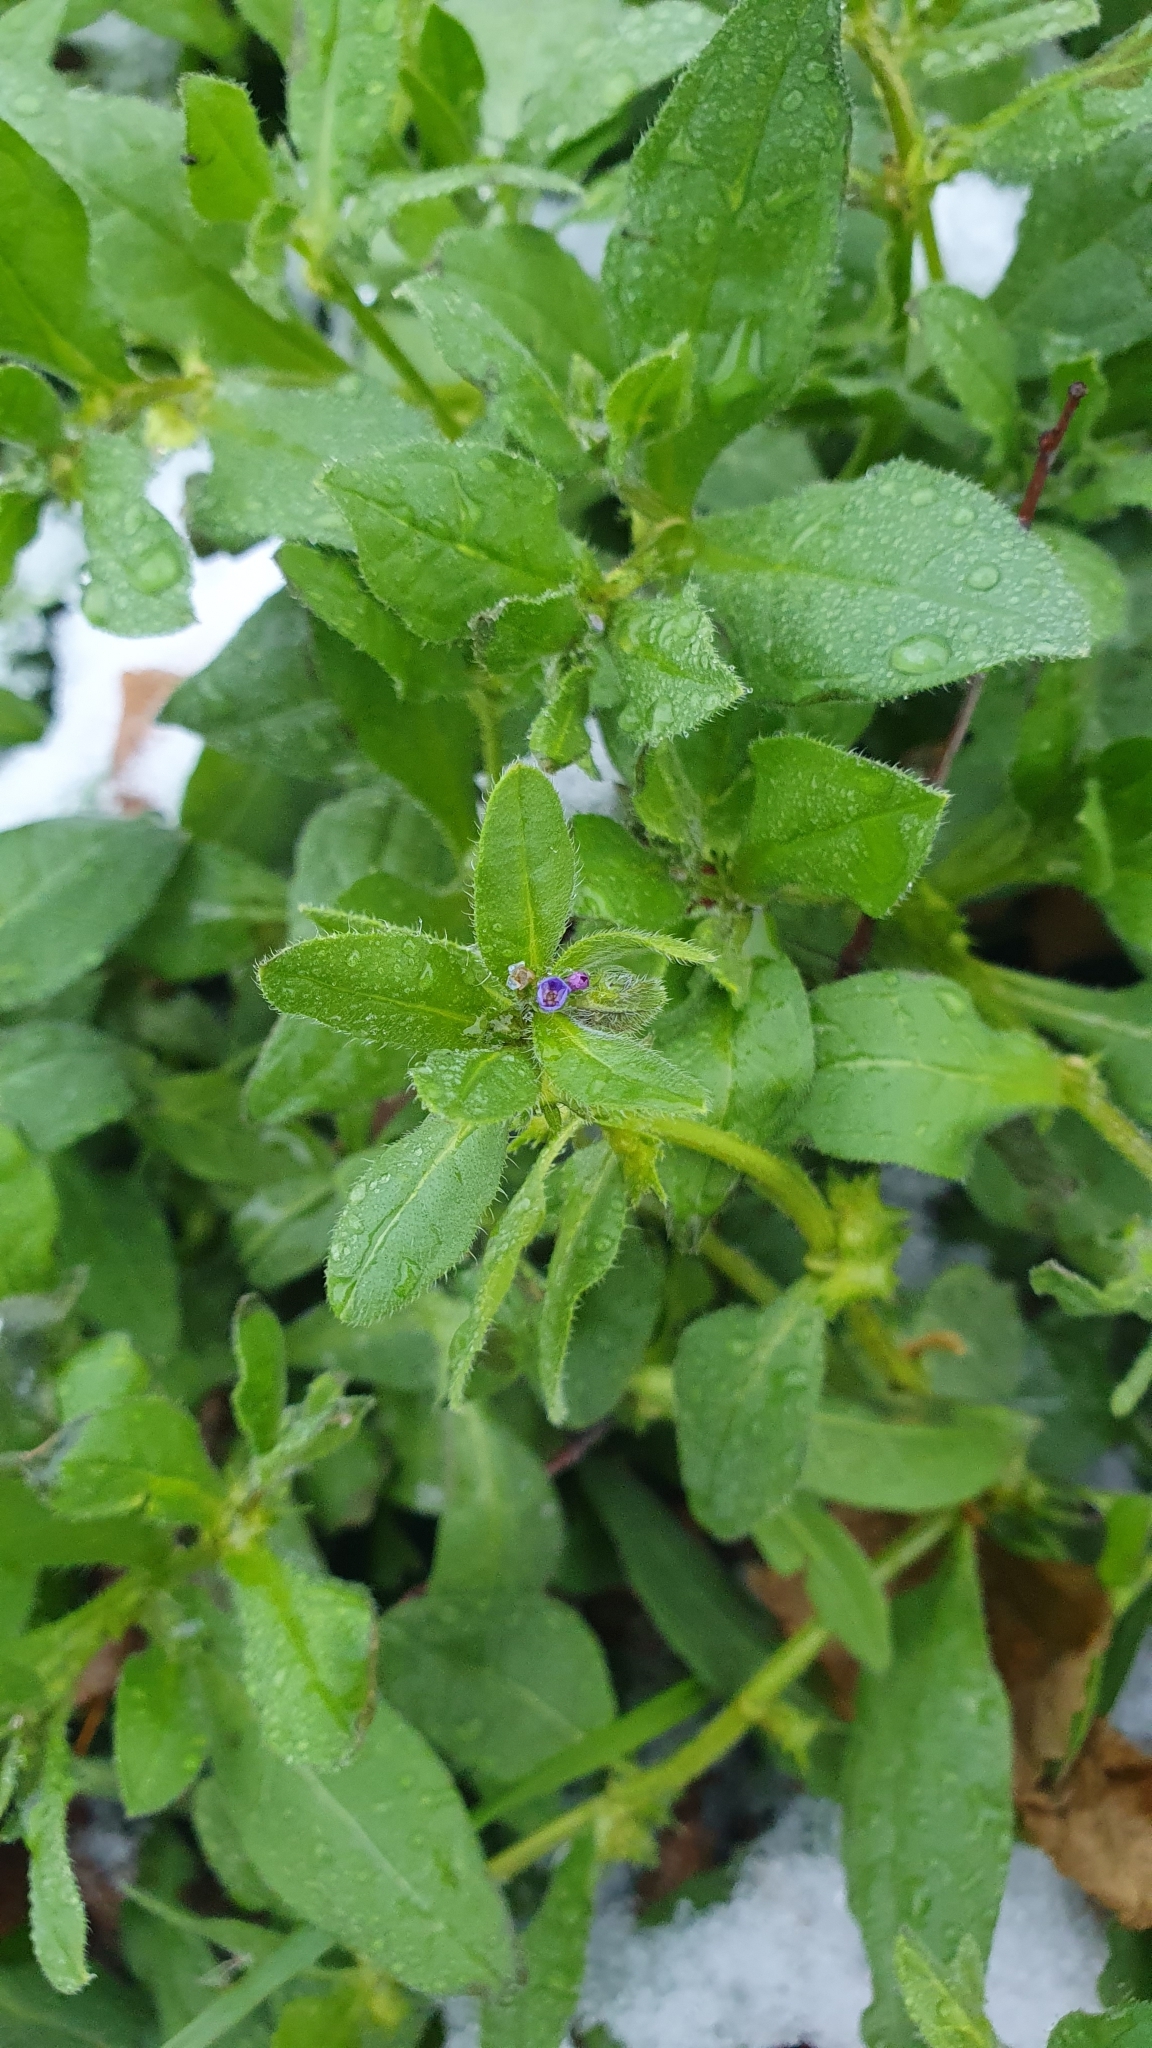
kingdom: Plantae
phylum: Tracheophyta
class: Magnoliopsida
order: Boraginales
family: Boraginaceae
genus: Asperugo
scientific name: Asperugo procumbens
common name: Madwort
